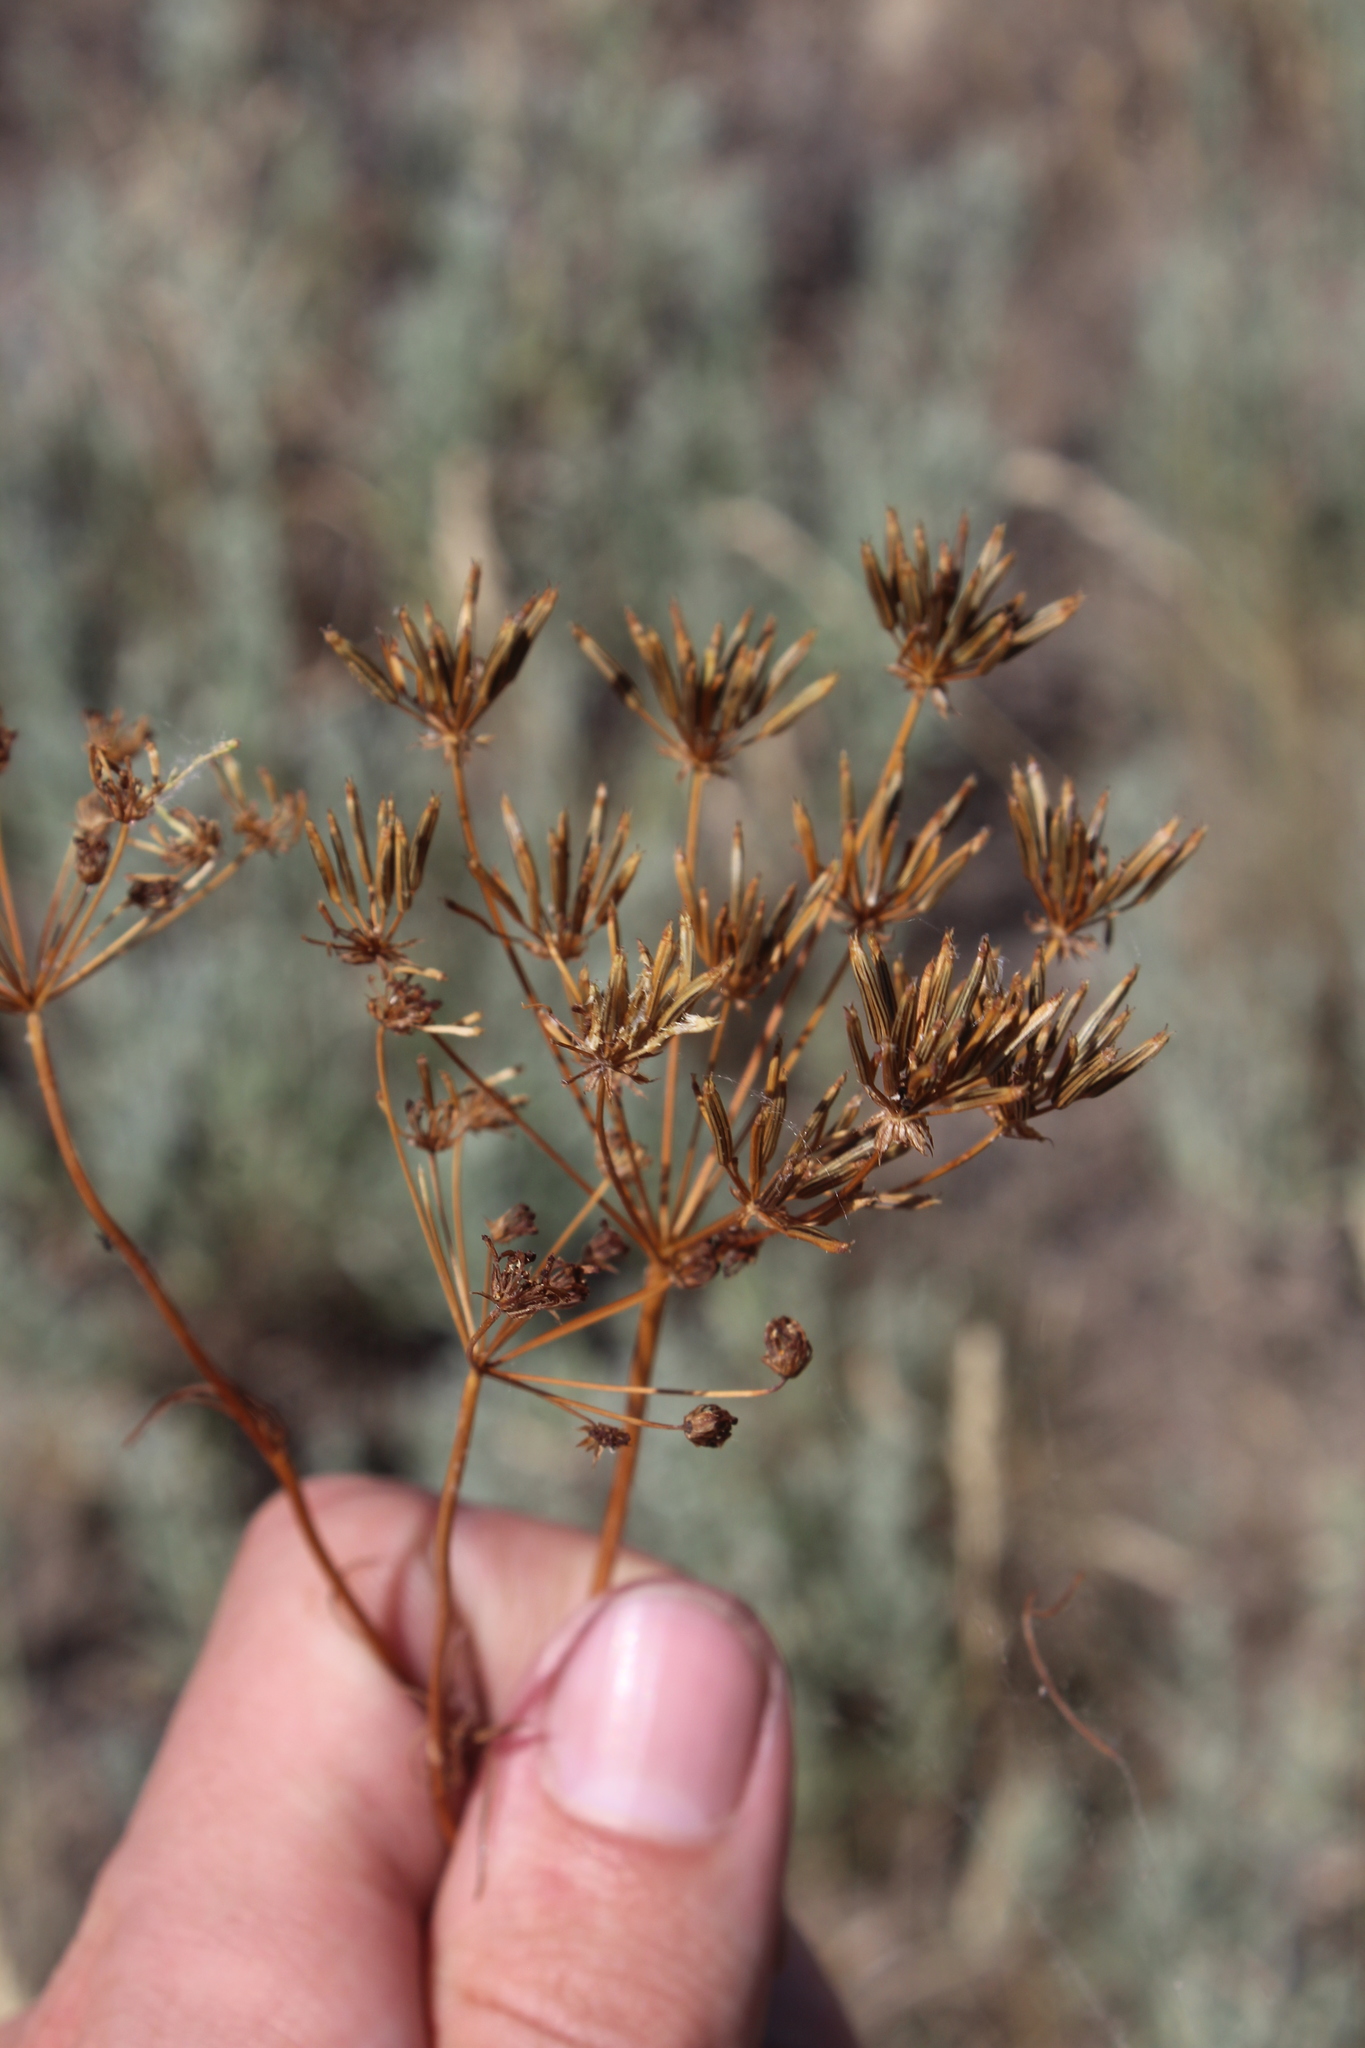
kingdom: Plantae
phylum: Tracheophyta
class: Magnoliopsida
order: Apiales
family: Apiaceae
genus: Chaerophyllum
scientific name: Chaerophyllum prescottii
